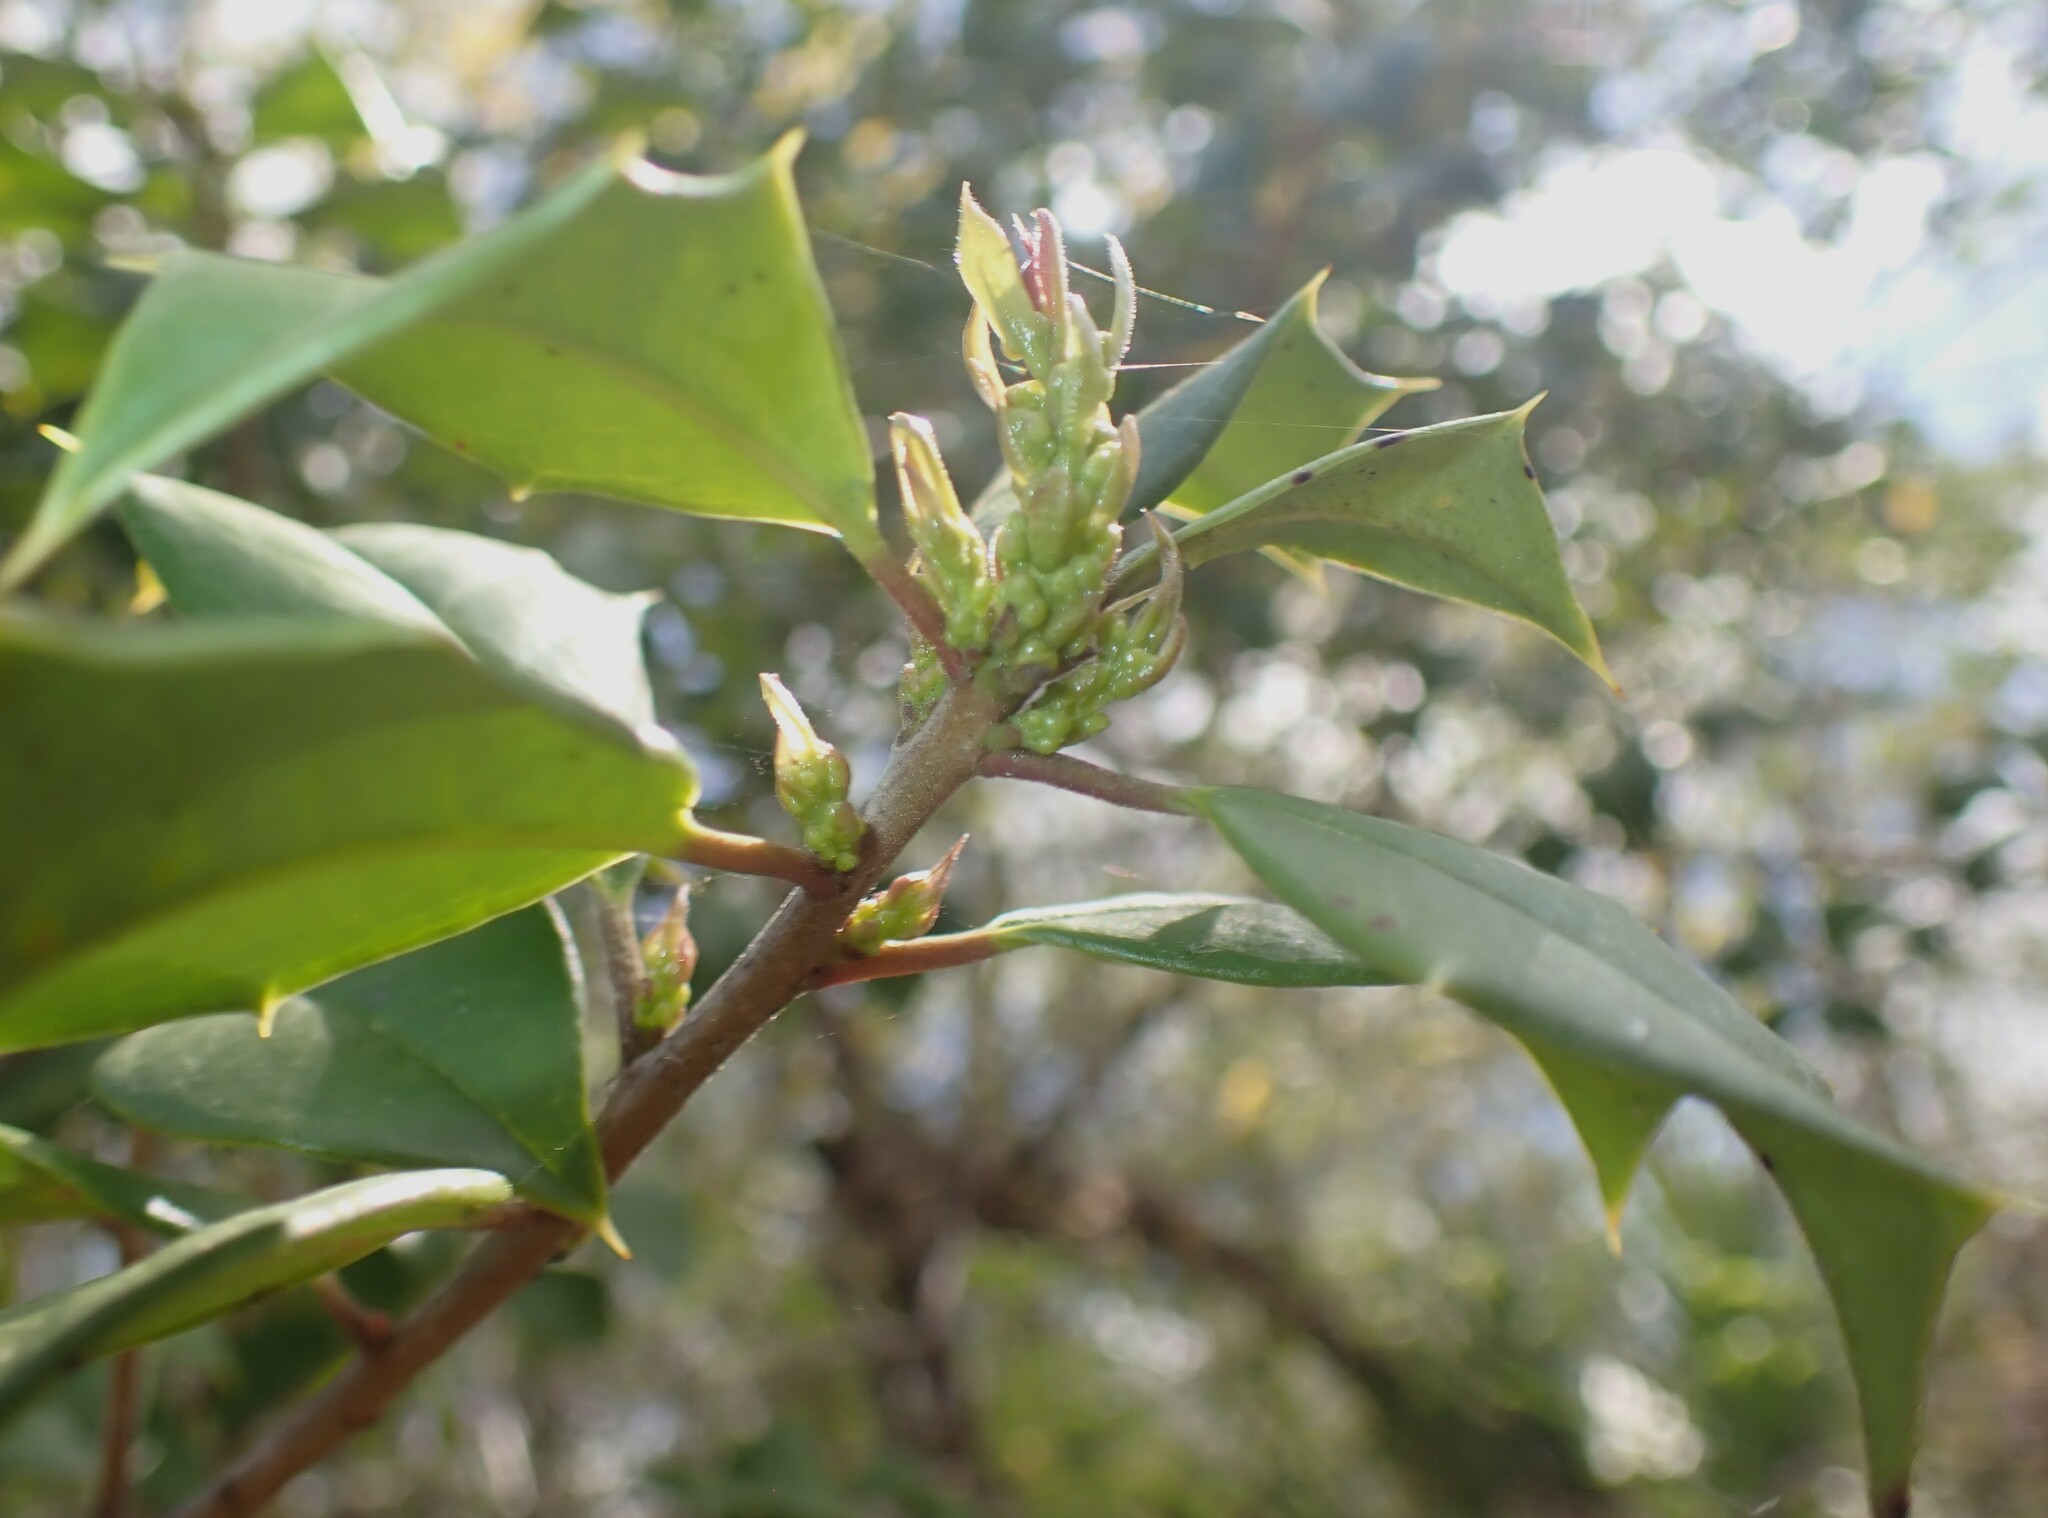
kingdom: Plantae
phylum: Tracheophyta
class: Magnoliopsida
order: Aquifoliales
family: Aquifoliaceae
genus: Ilex
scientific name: Ilex opaca
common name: American holly
